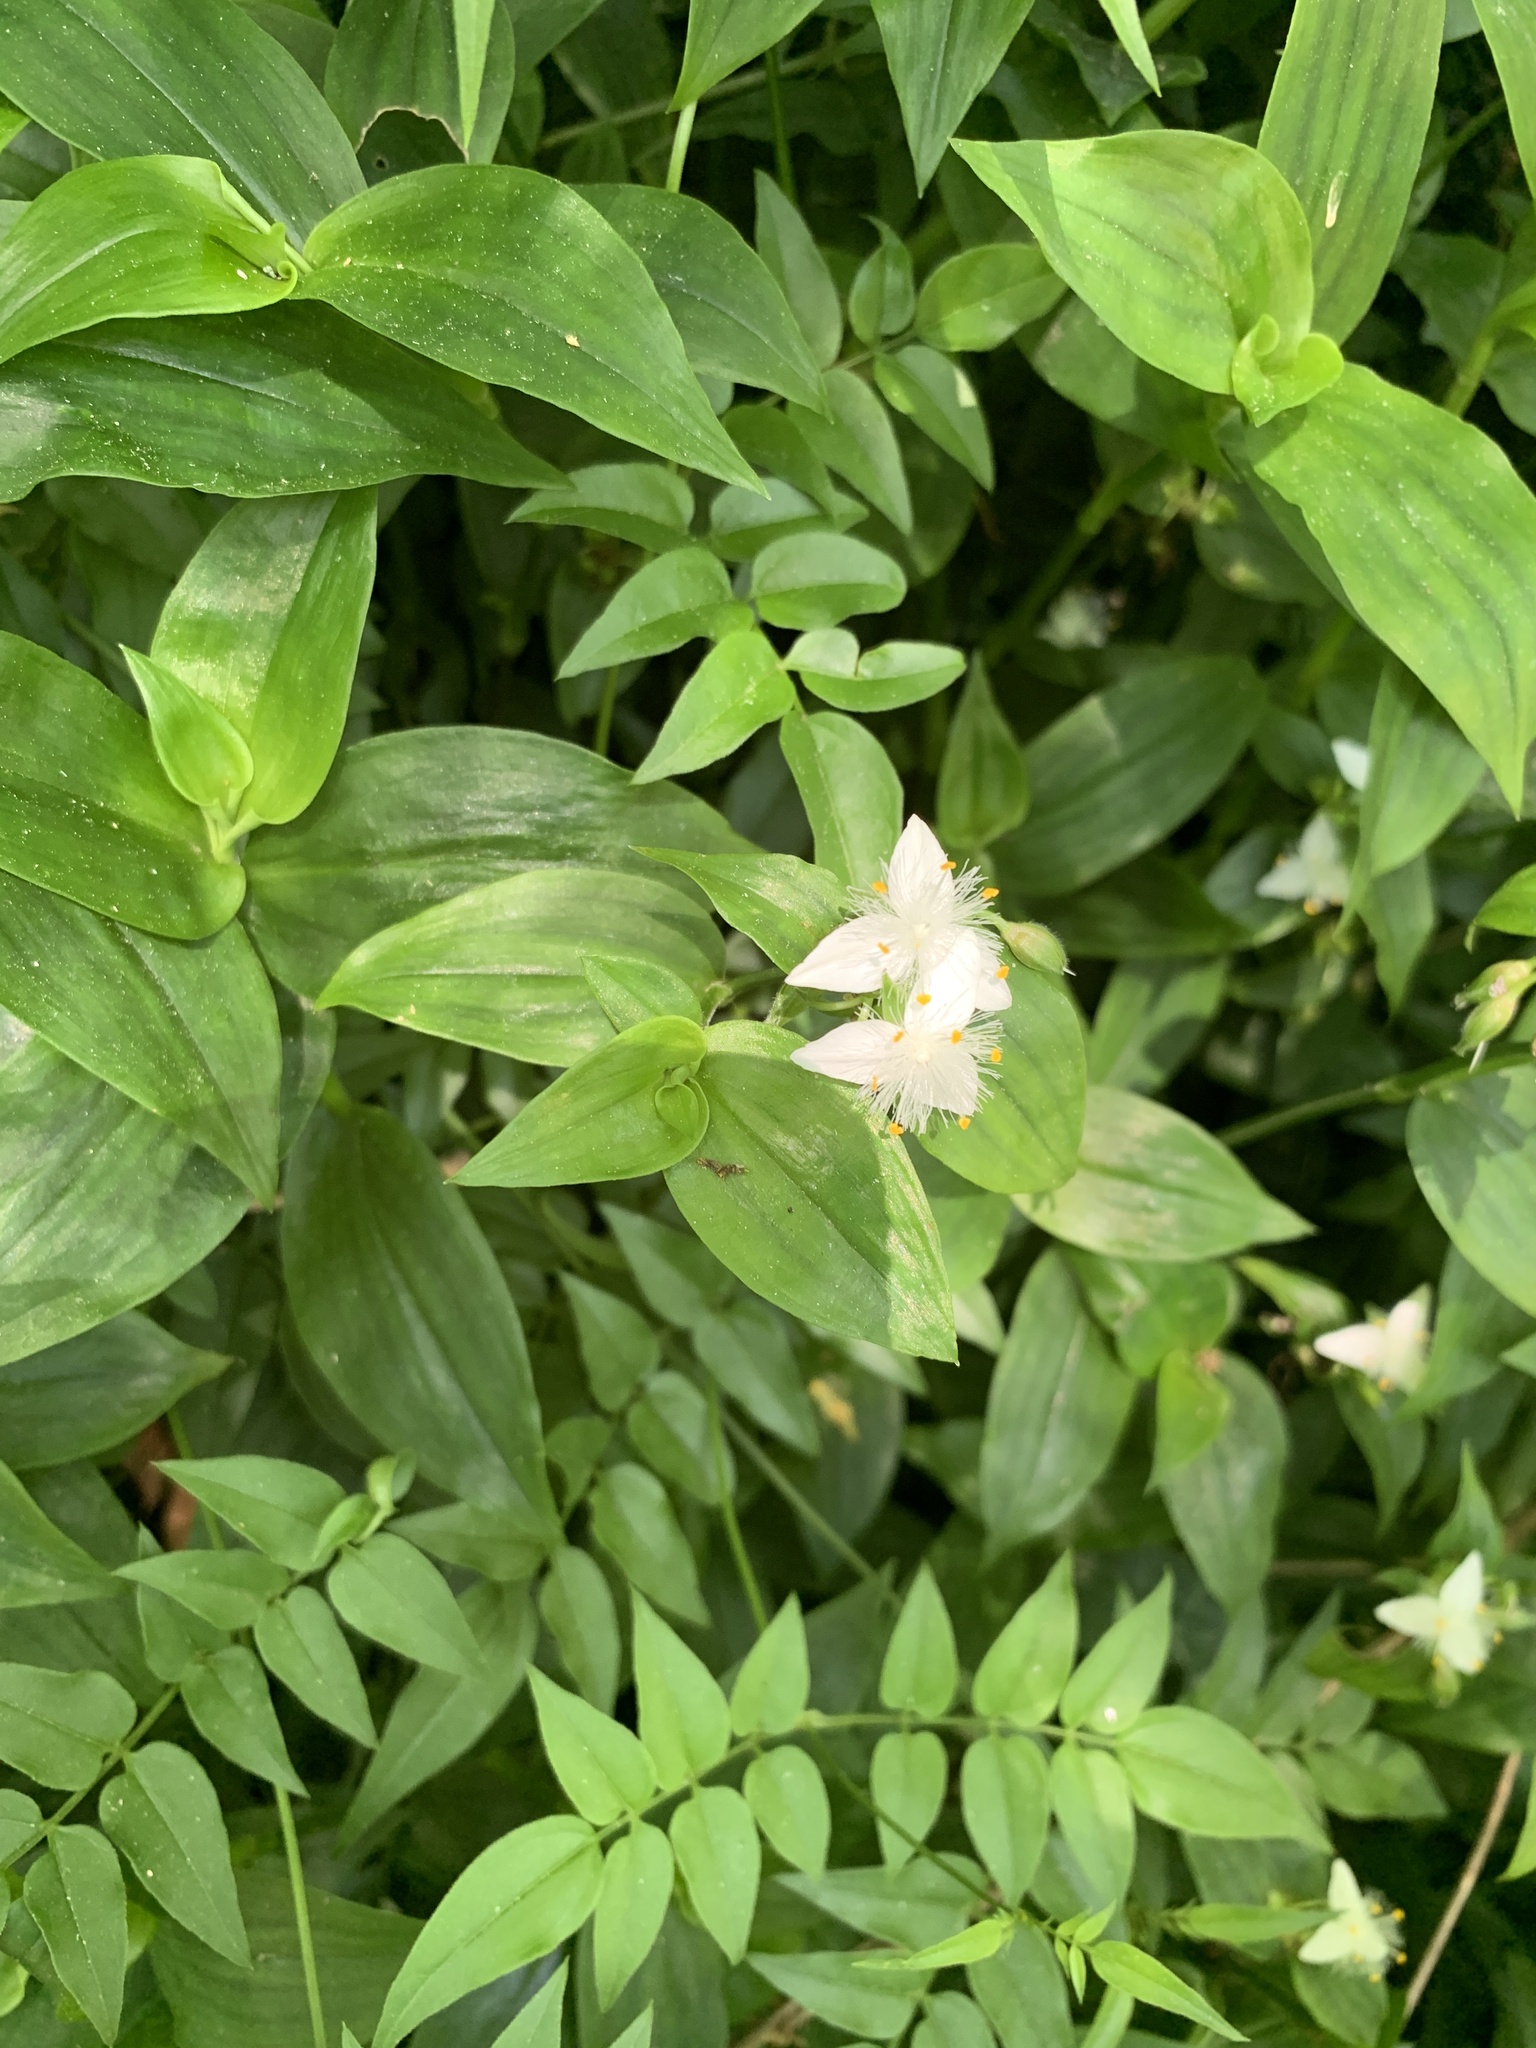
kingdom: Plantae
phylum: Tracheophyta
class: Liliopsida
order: Commelinales
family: Commelinaceae
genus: Tradescantia
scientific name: Tradescantia fluminensis
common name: Wandering-jew
